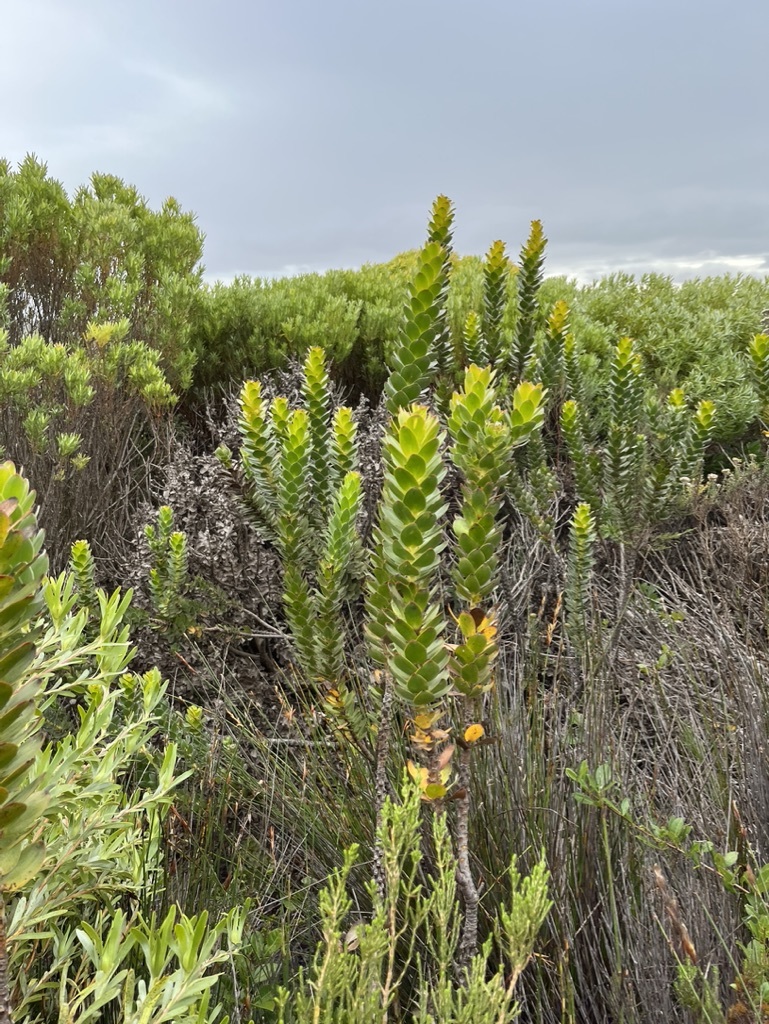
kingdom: Plantae
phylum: Tracheophyta
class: Magnoliopsida
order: Proteales
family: Proteaceae
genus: Mimetes
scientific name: Mimetes saxatilis
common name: Limestone pagoda
